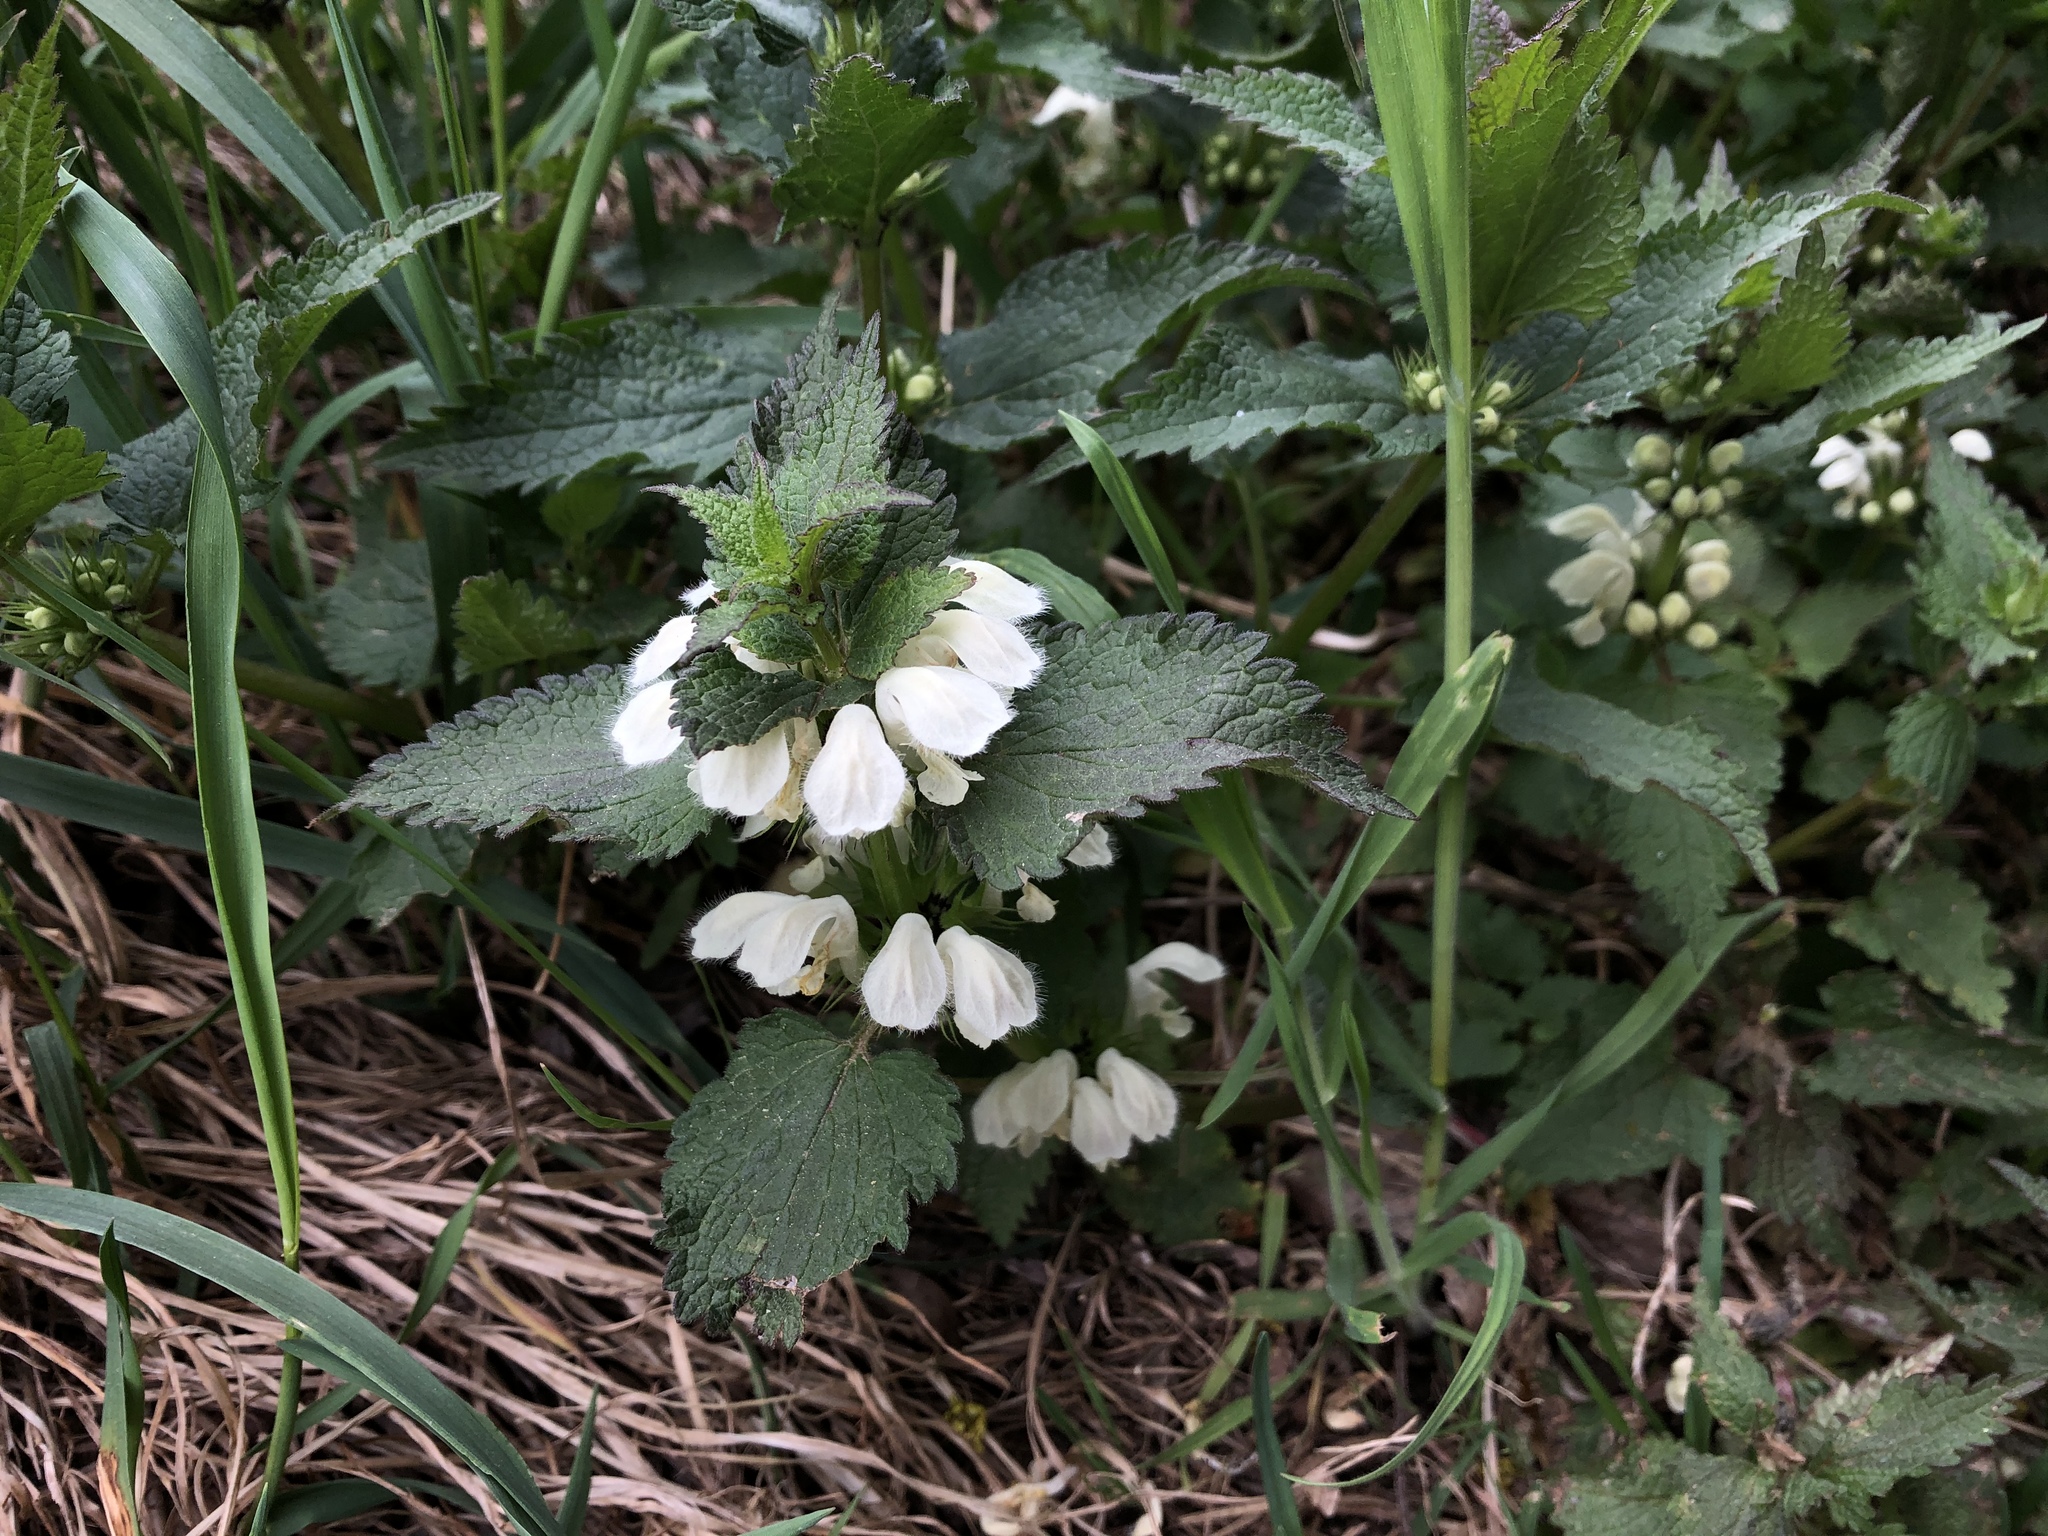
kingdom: Plantae
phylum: Tracheophyta
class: Magnoliopsida
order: Lamiales
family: Lamiaceae
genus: Lamium
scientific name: Lamium album
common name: White dead-nettle
